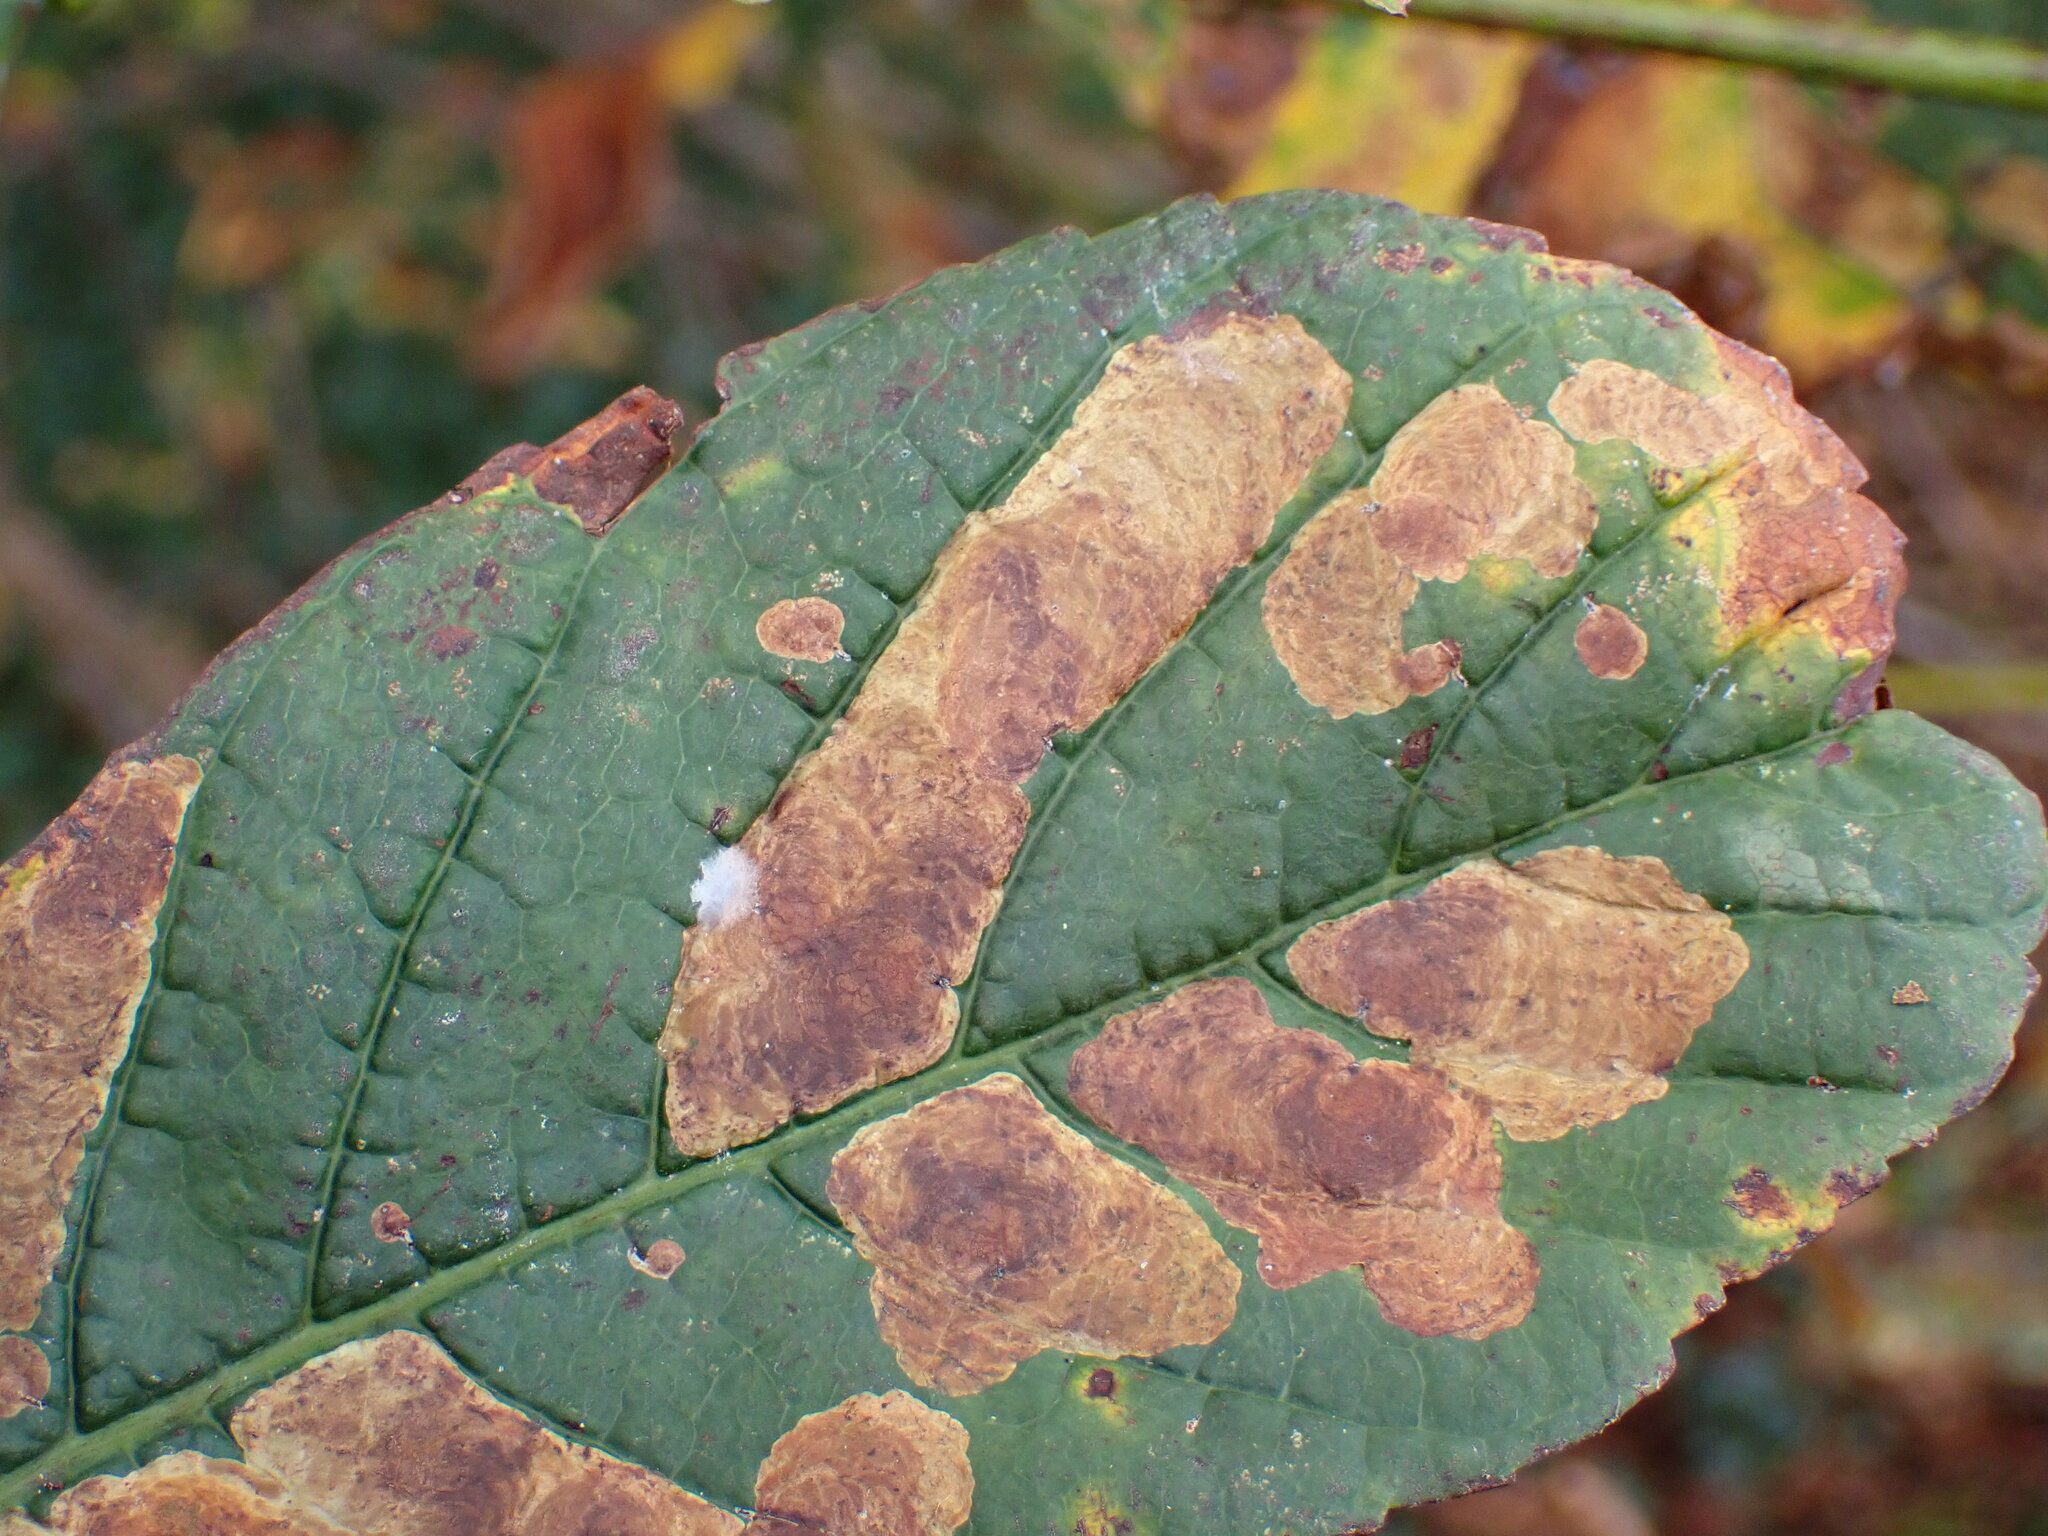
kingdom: Animalia
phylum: Arthropoda
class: Insecta
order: Lepidoptera
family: Gracillariidae
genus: Cameraria
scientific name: Cameraria ohridella
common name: Horse-chestnut leaf-miner
